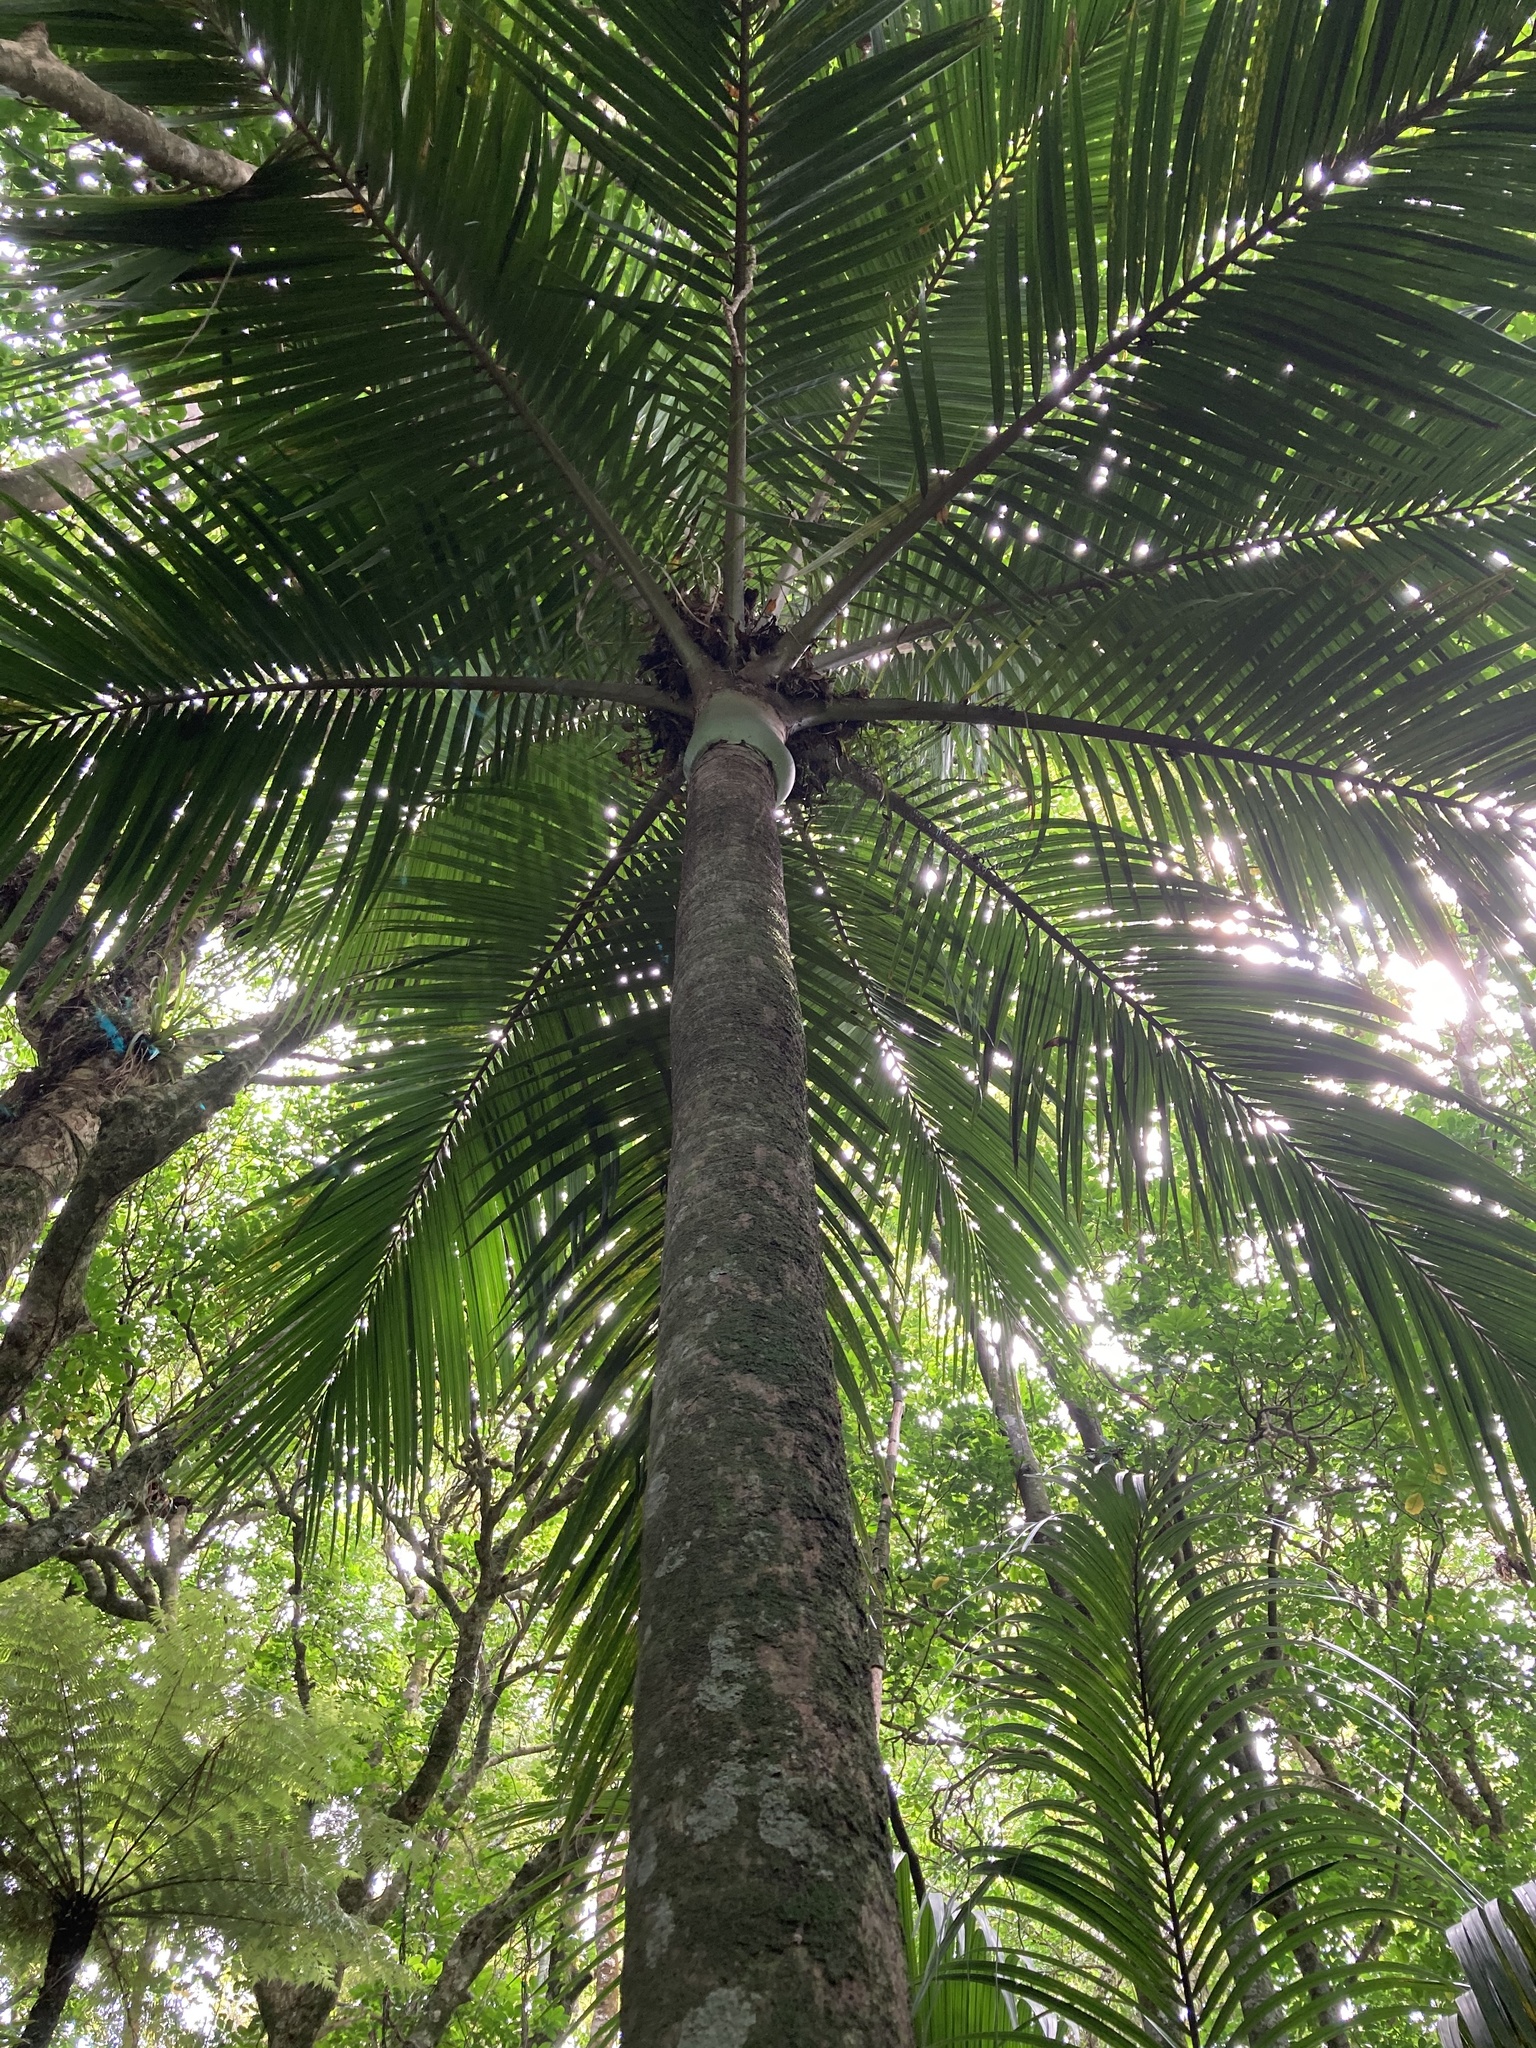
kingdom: Plantae
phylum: Tracheophyta
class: Liliopsida
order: Arecales
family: Arecaceae
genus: Rhopalostylis
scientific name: Rhopalostylis sapida
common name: Feather-duster palm
